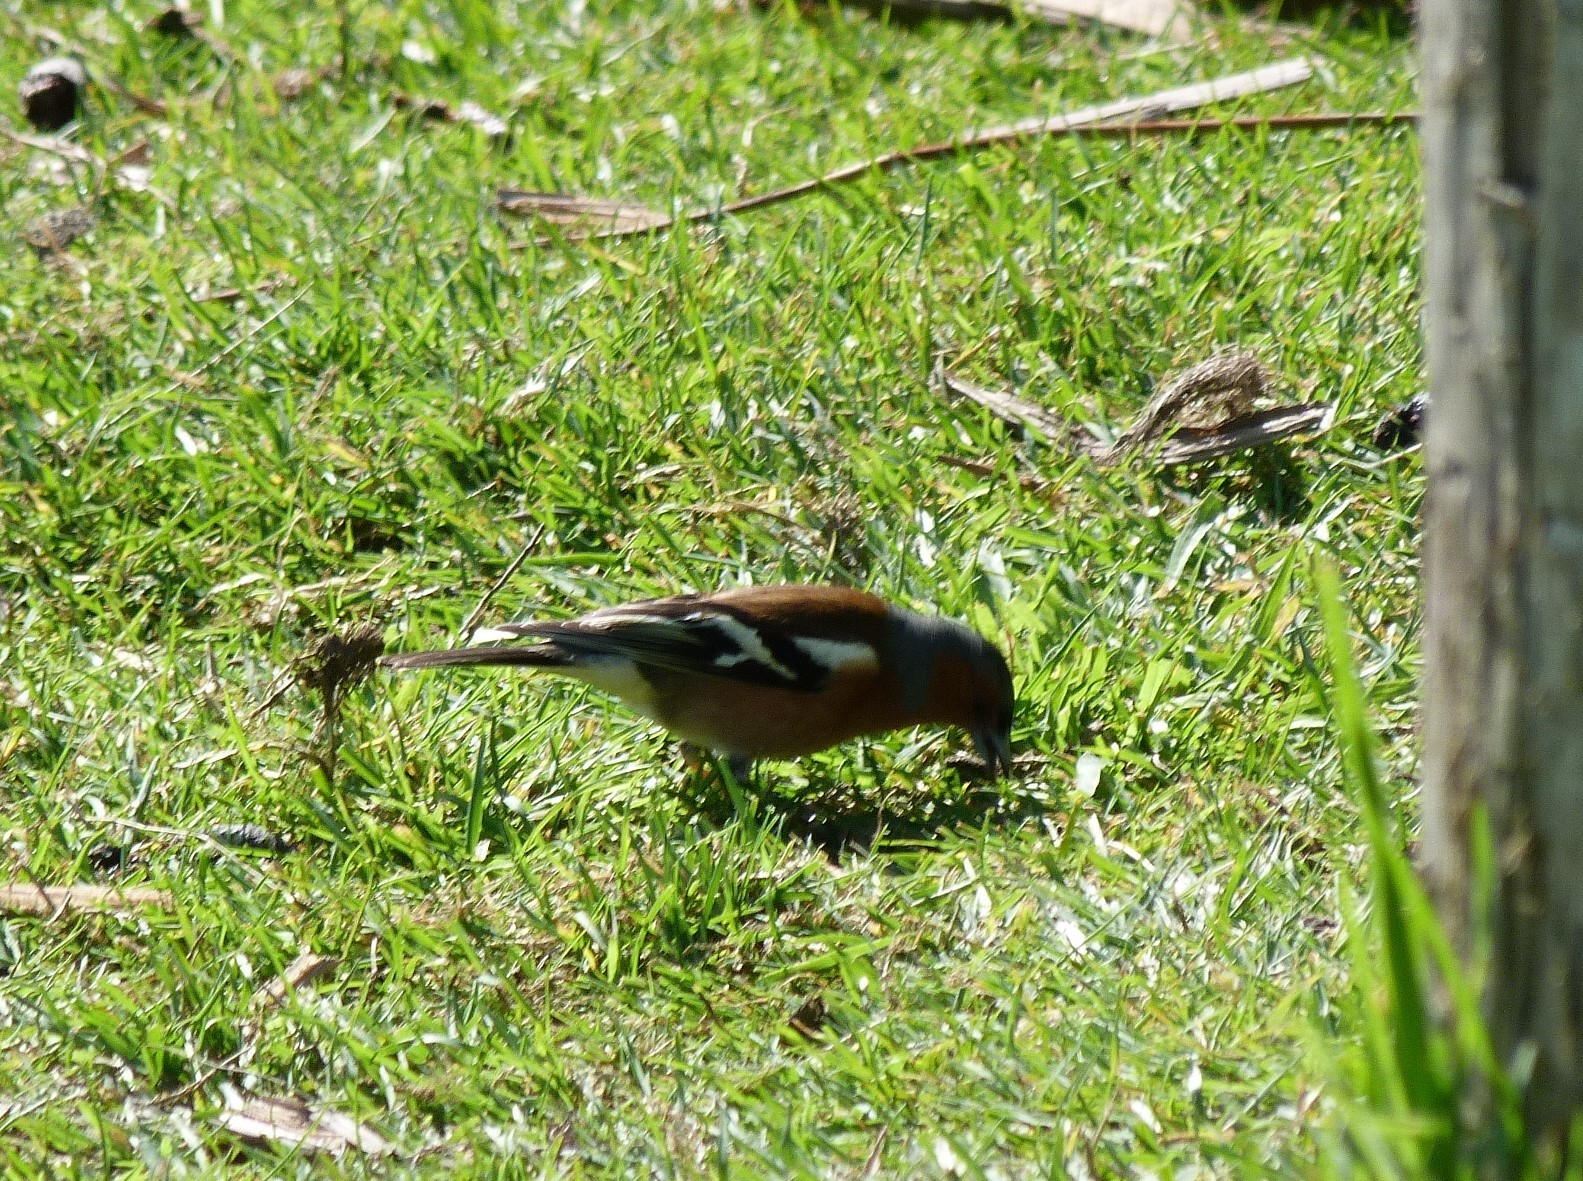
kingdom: Animalia
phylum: Chordata
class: Aves
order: Passeriformes
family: Fringillidae
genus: Fringilla
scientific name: Fringilla coelebs
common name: Common chaffinch
